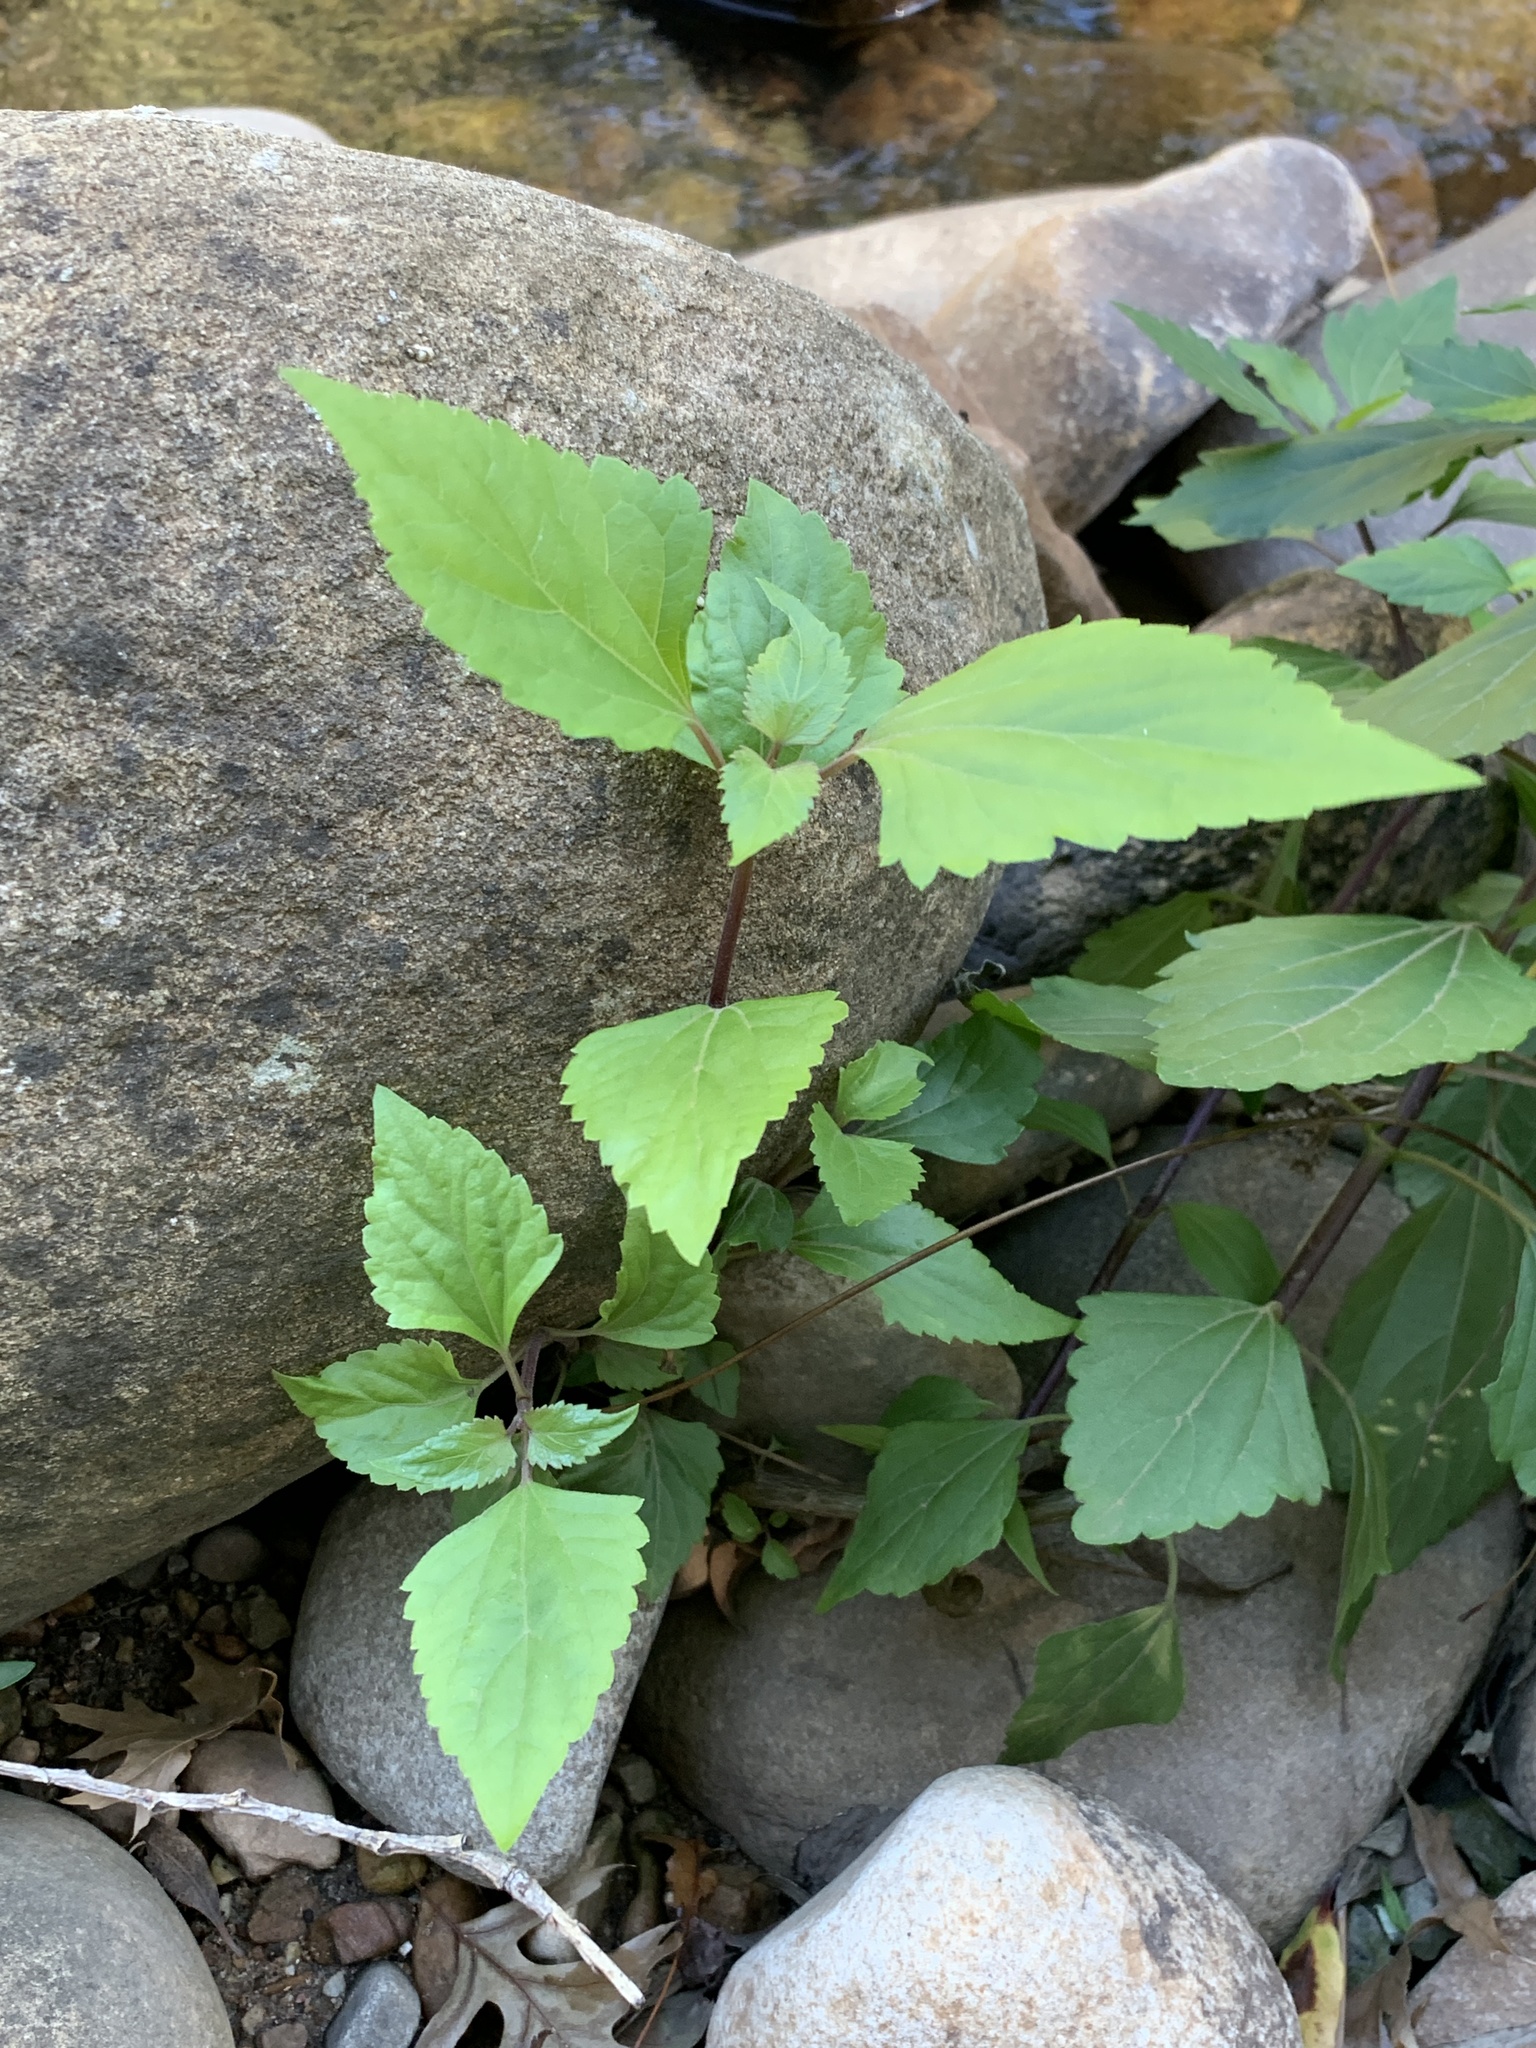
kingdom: Plantae
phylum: Tracheophyta
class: Magnoliopsida
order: Asterales
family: Asteraceae
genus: Ageratina
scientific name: Ageratina adenophora
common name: Sticky snakeroot
